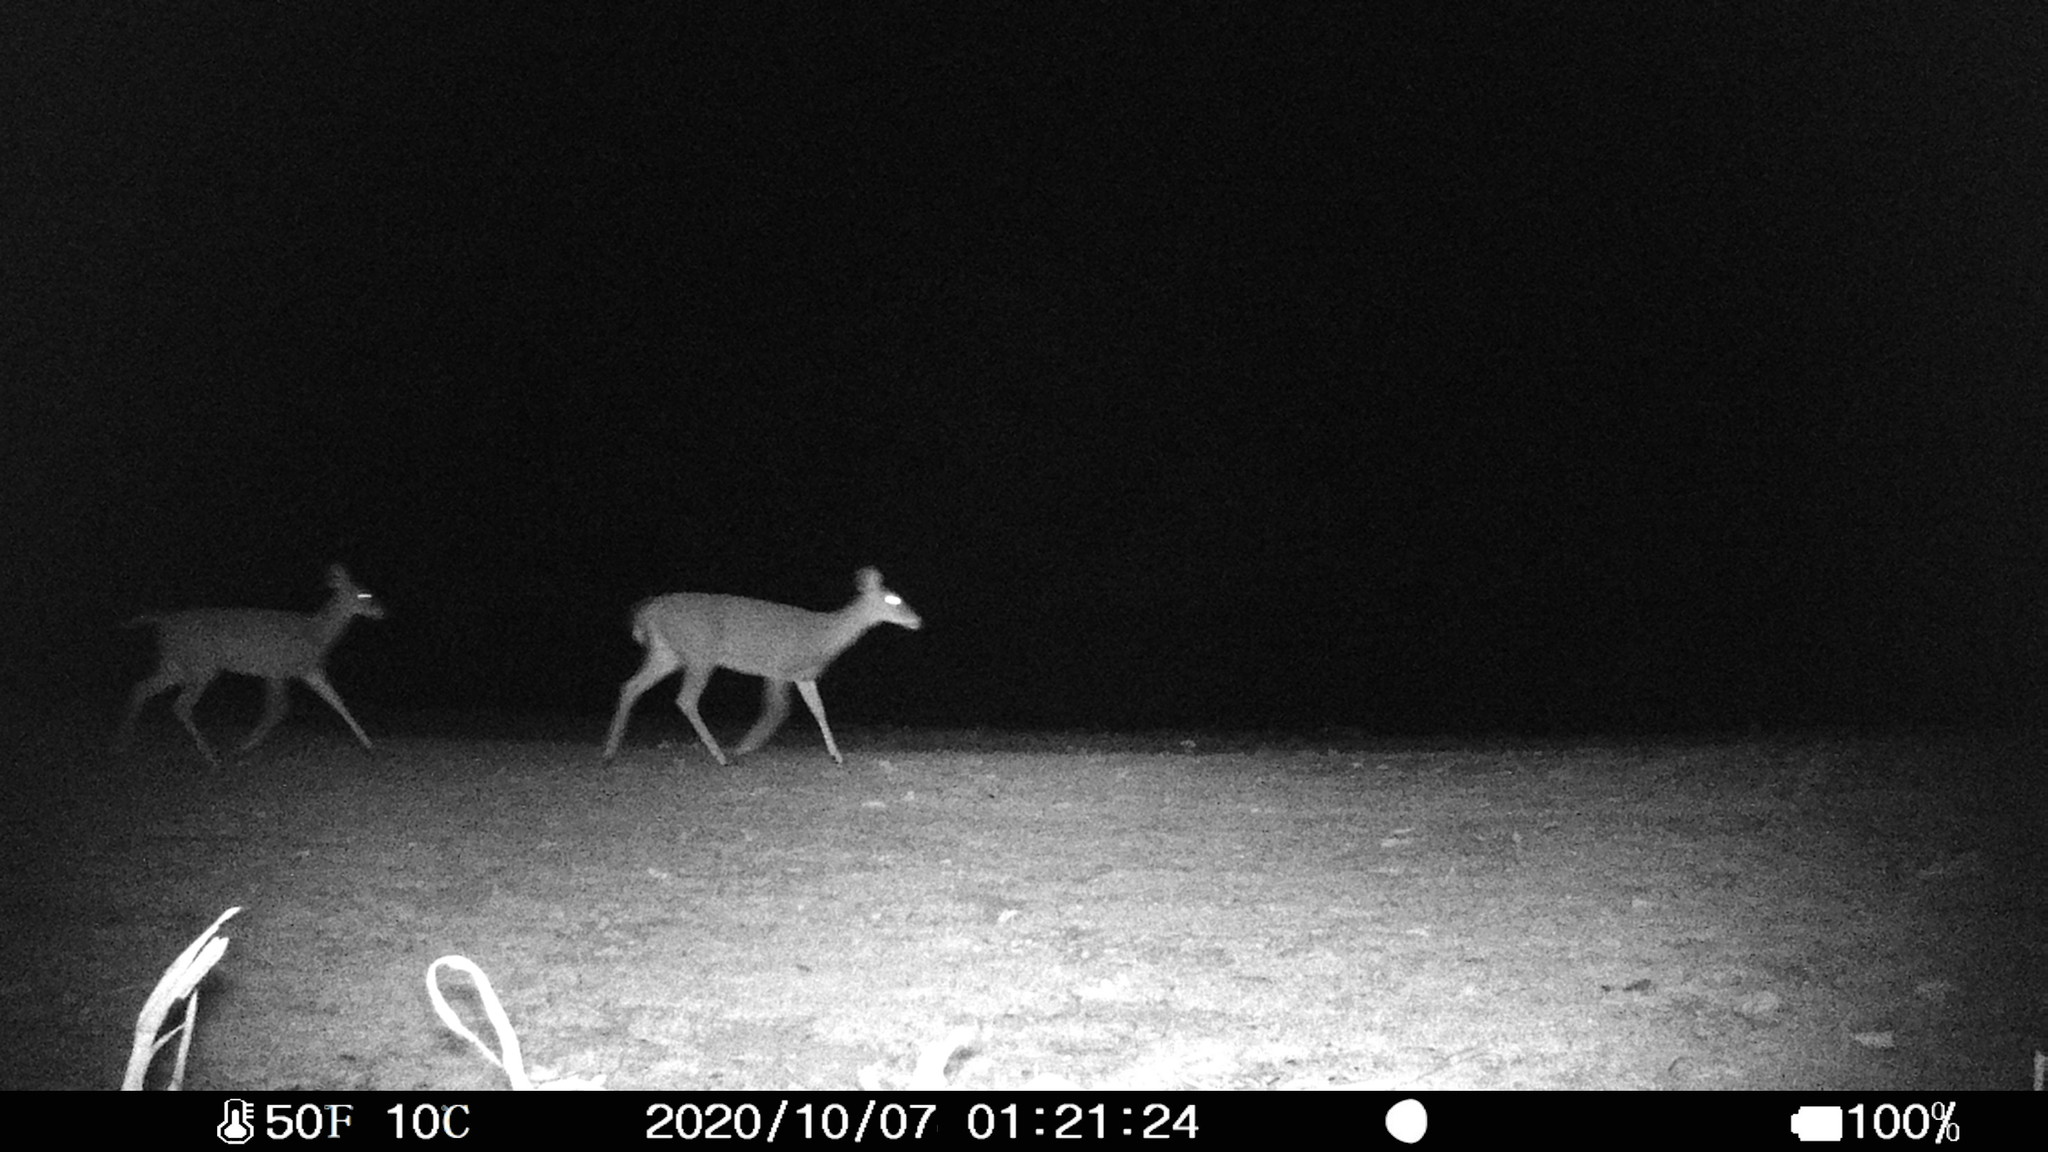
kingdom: Animalia
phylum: Chordata
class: Mammalia
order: Artiodactyla
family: Cervidae
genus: Odocoileus
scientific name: Odocoileus virginianus
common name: White-tailed deer
